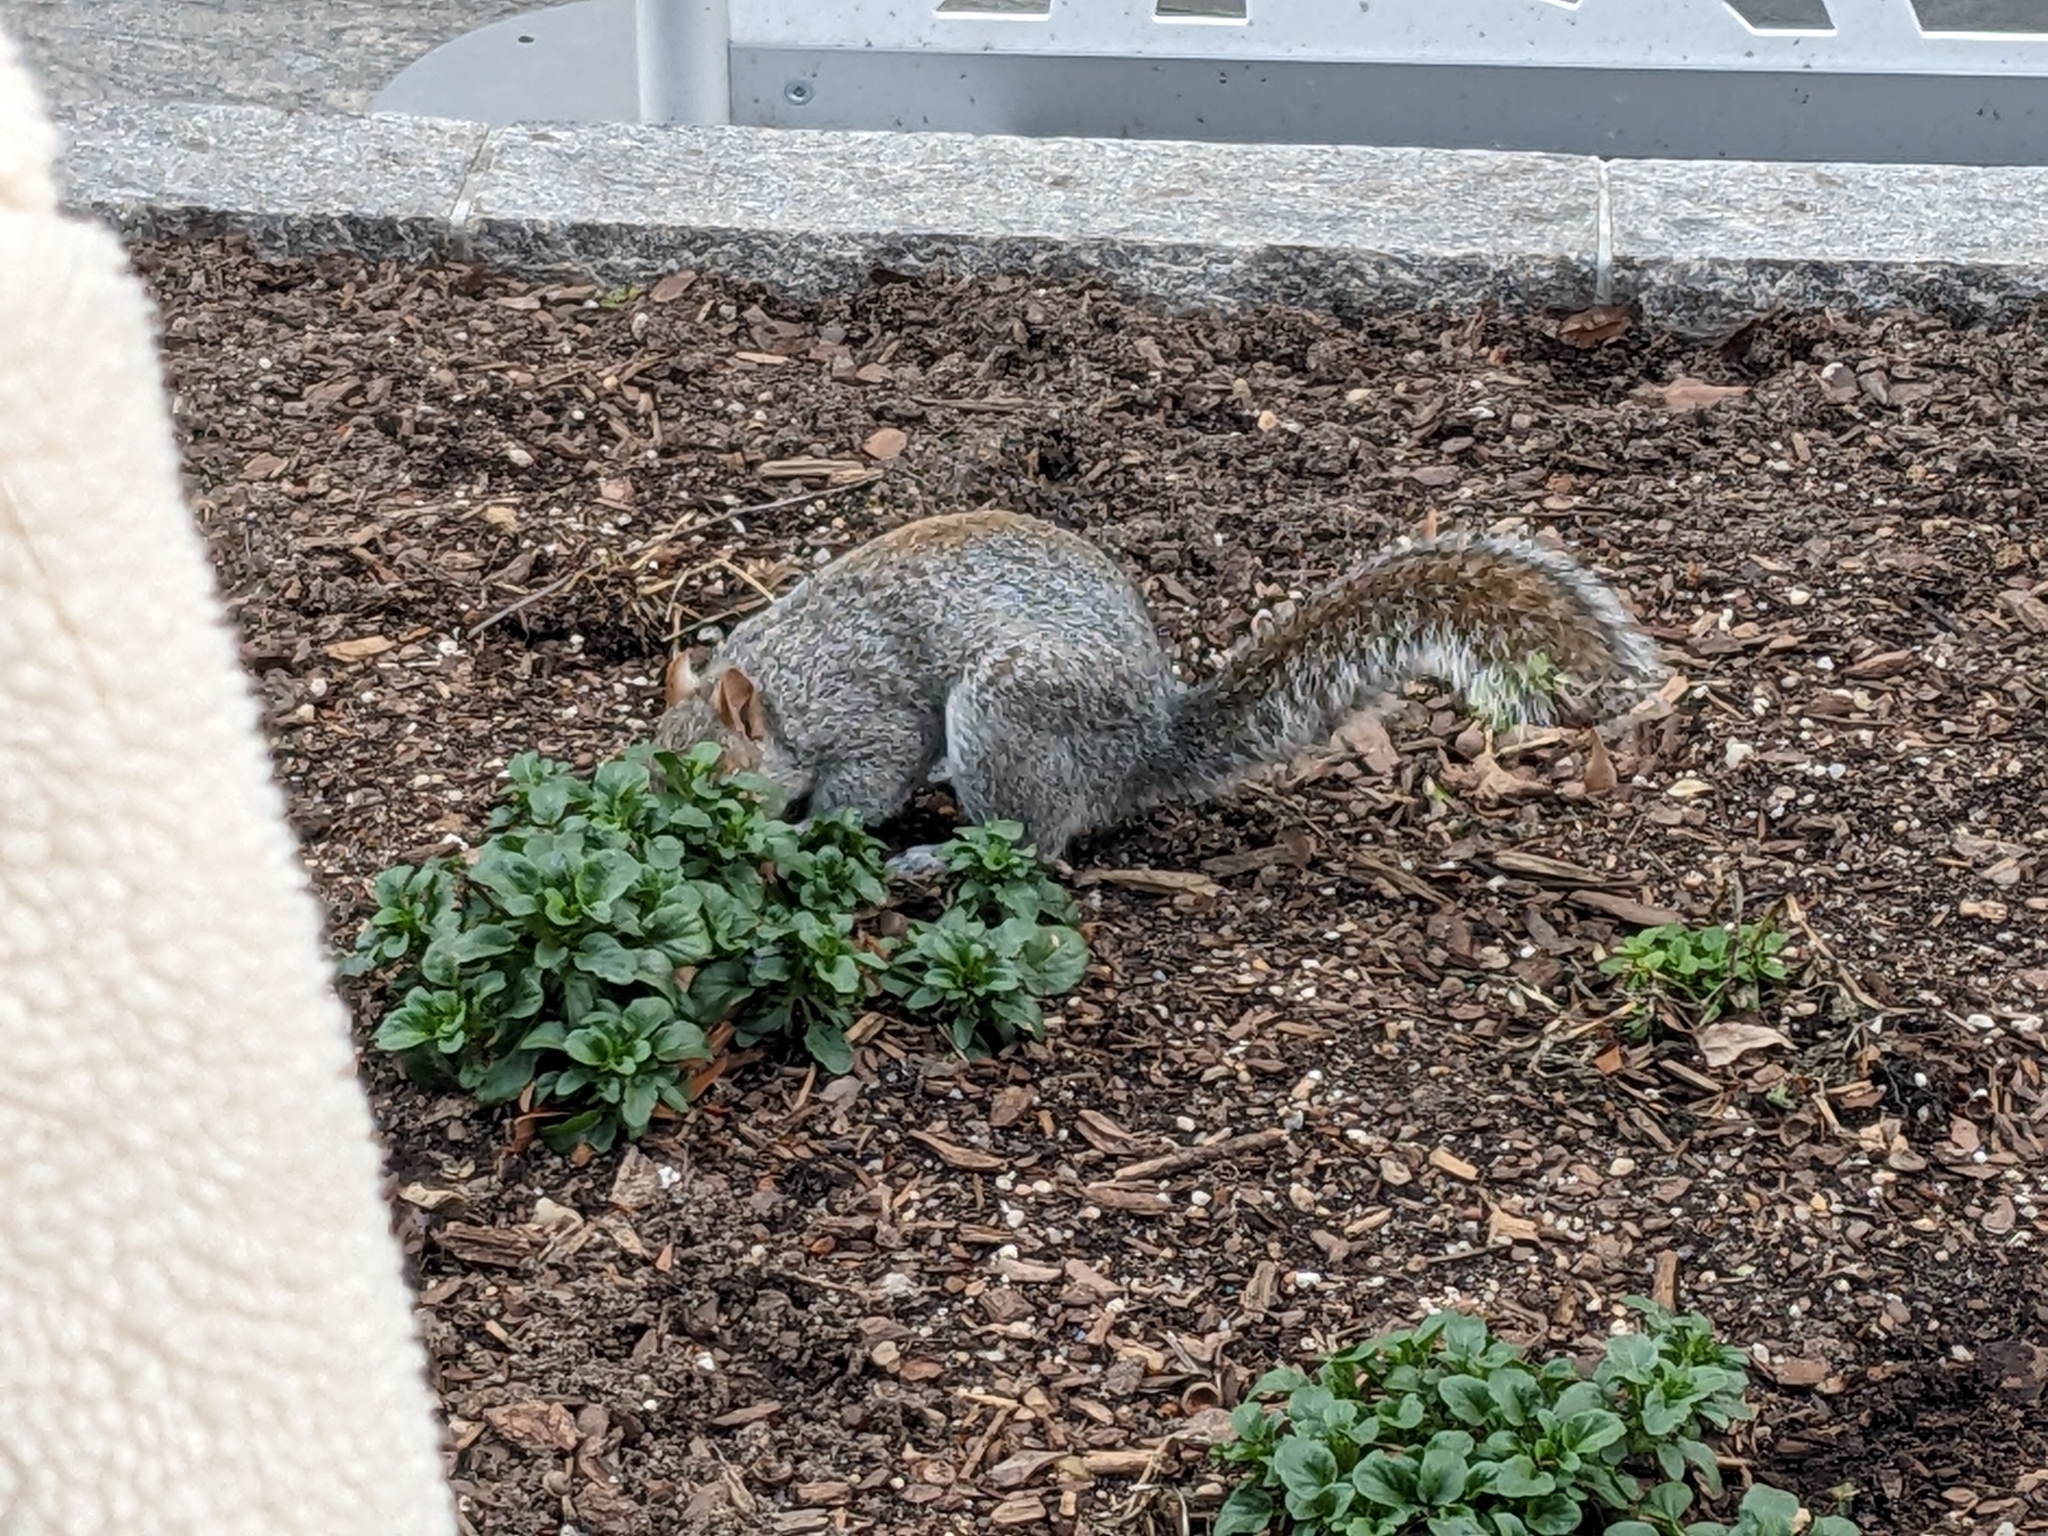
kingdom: Animalia
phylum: Chordata
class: Mammalia
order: Rodentia
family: Sciuridae
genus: Sciurus
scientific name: Sciurus carolinensis
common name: Eastern gray squirrel
